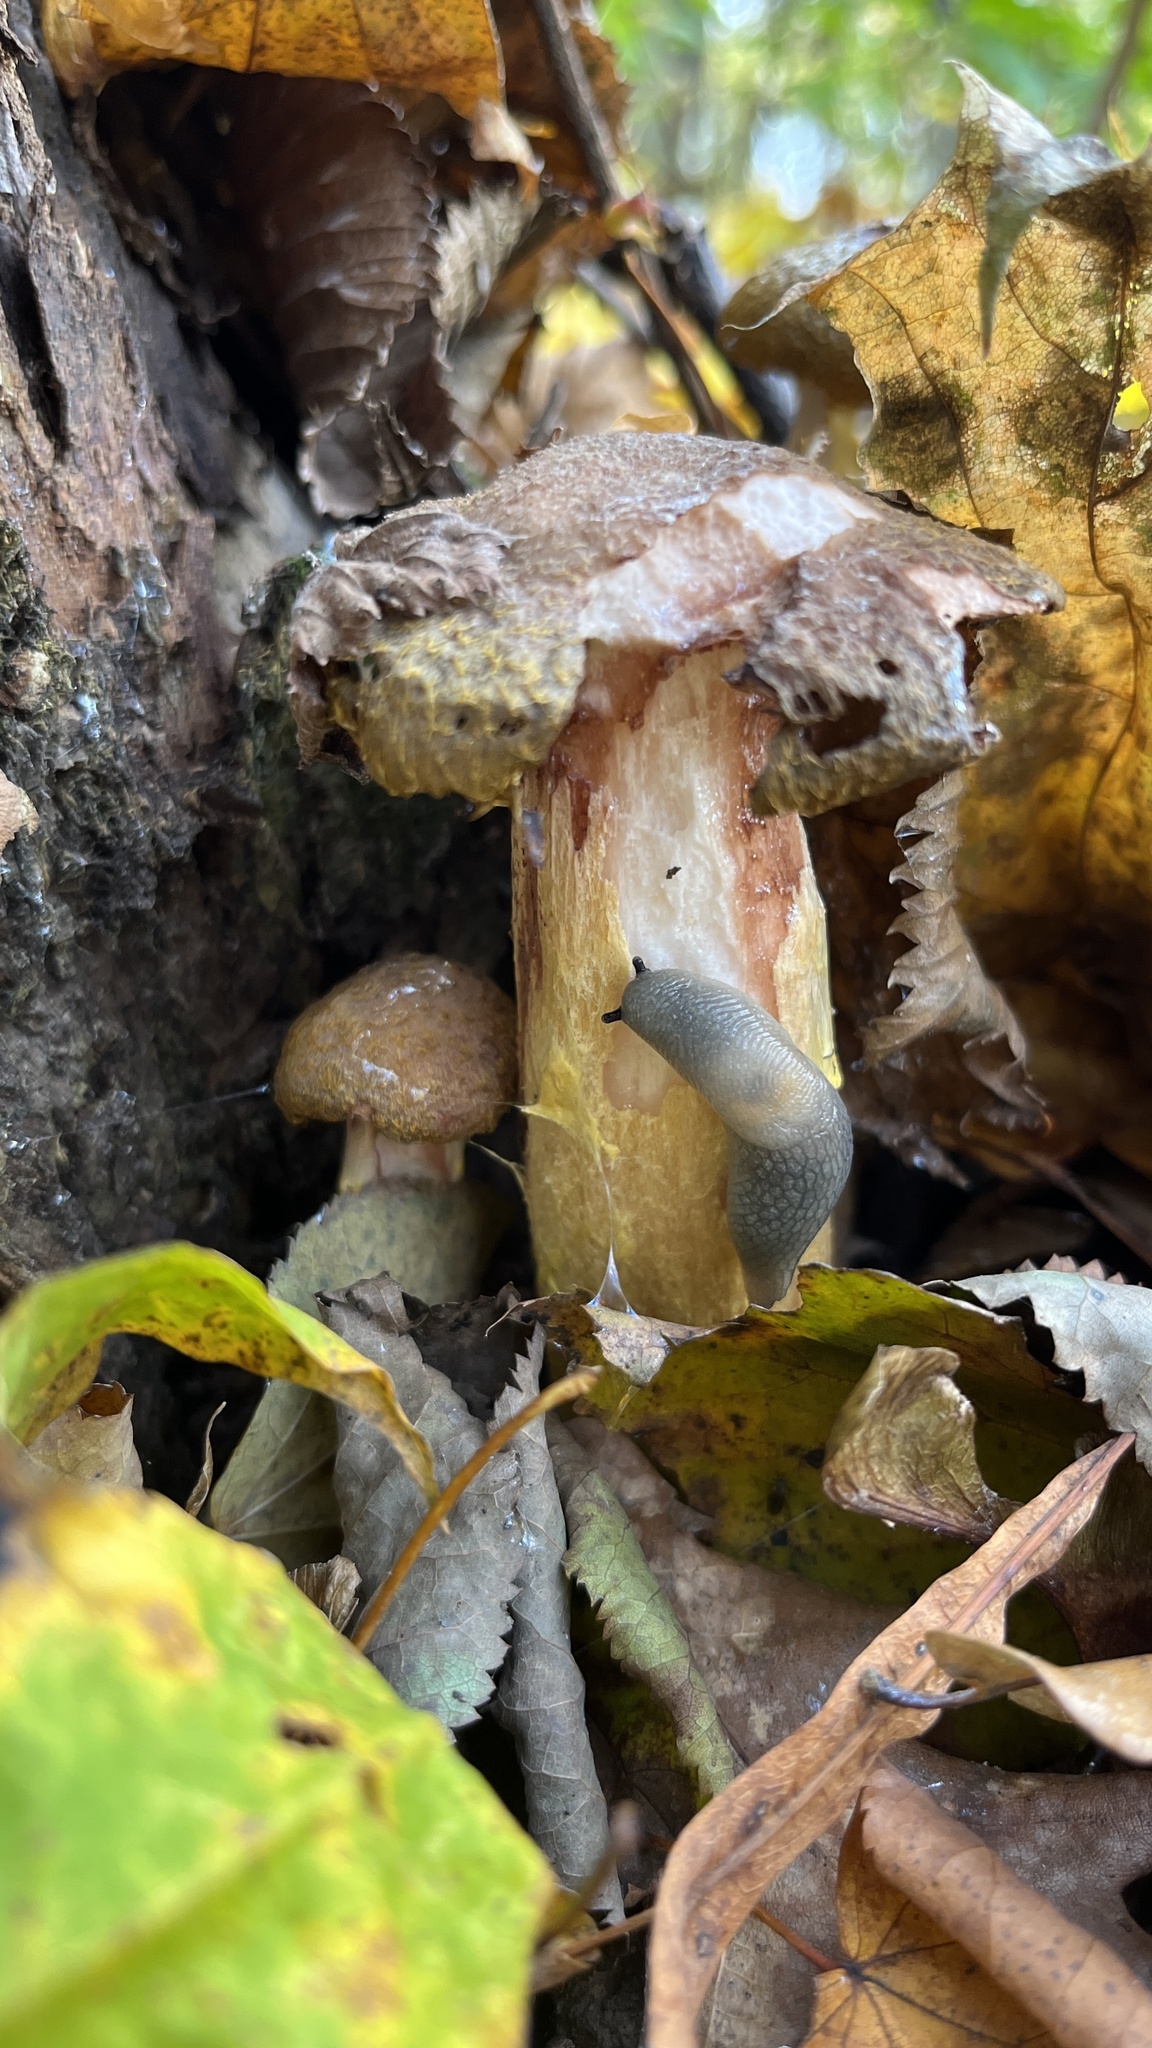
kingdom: Animalia
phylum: Mollusca
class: Gastropoda
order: Stylommatophora
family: Agriolimacidae
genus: Krynickillus
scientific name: Krynickillus melanocephalus
